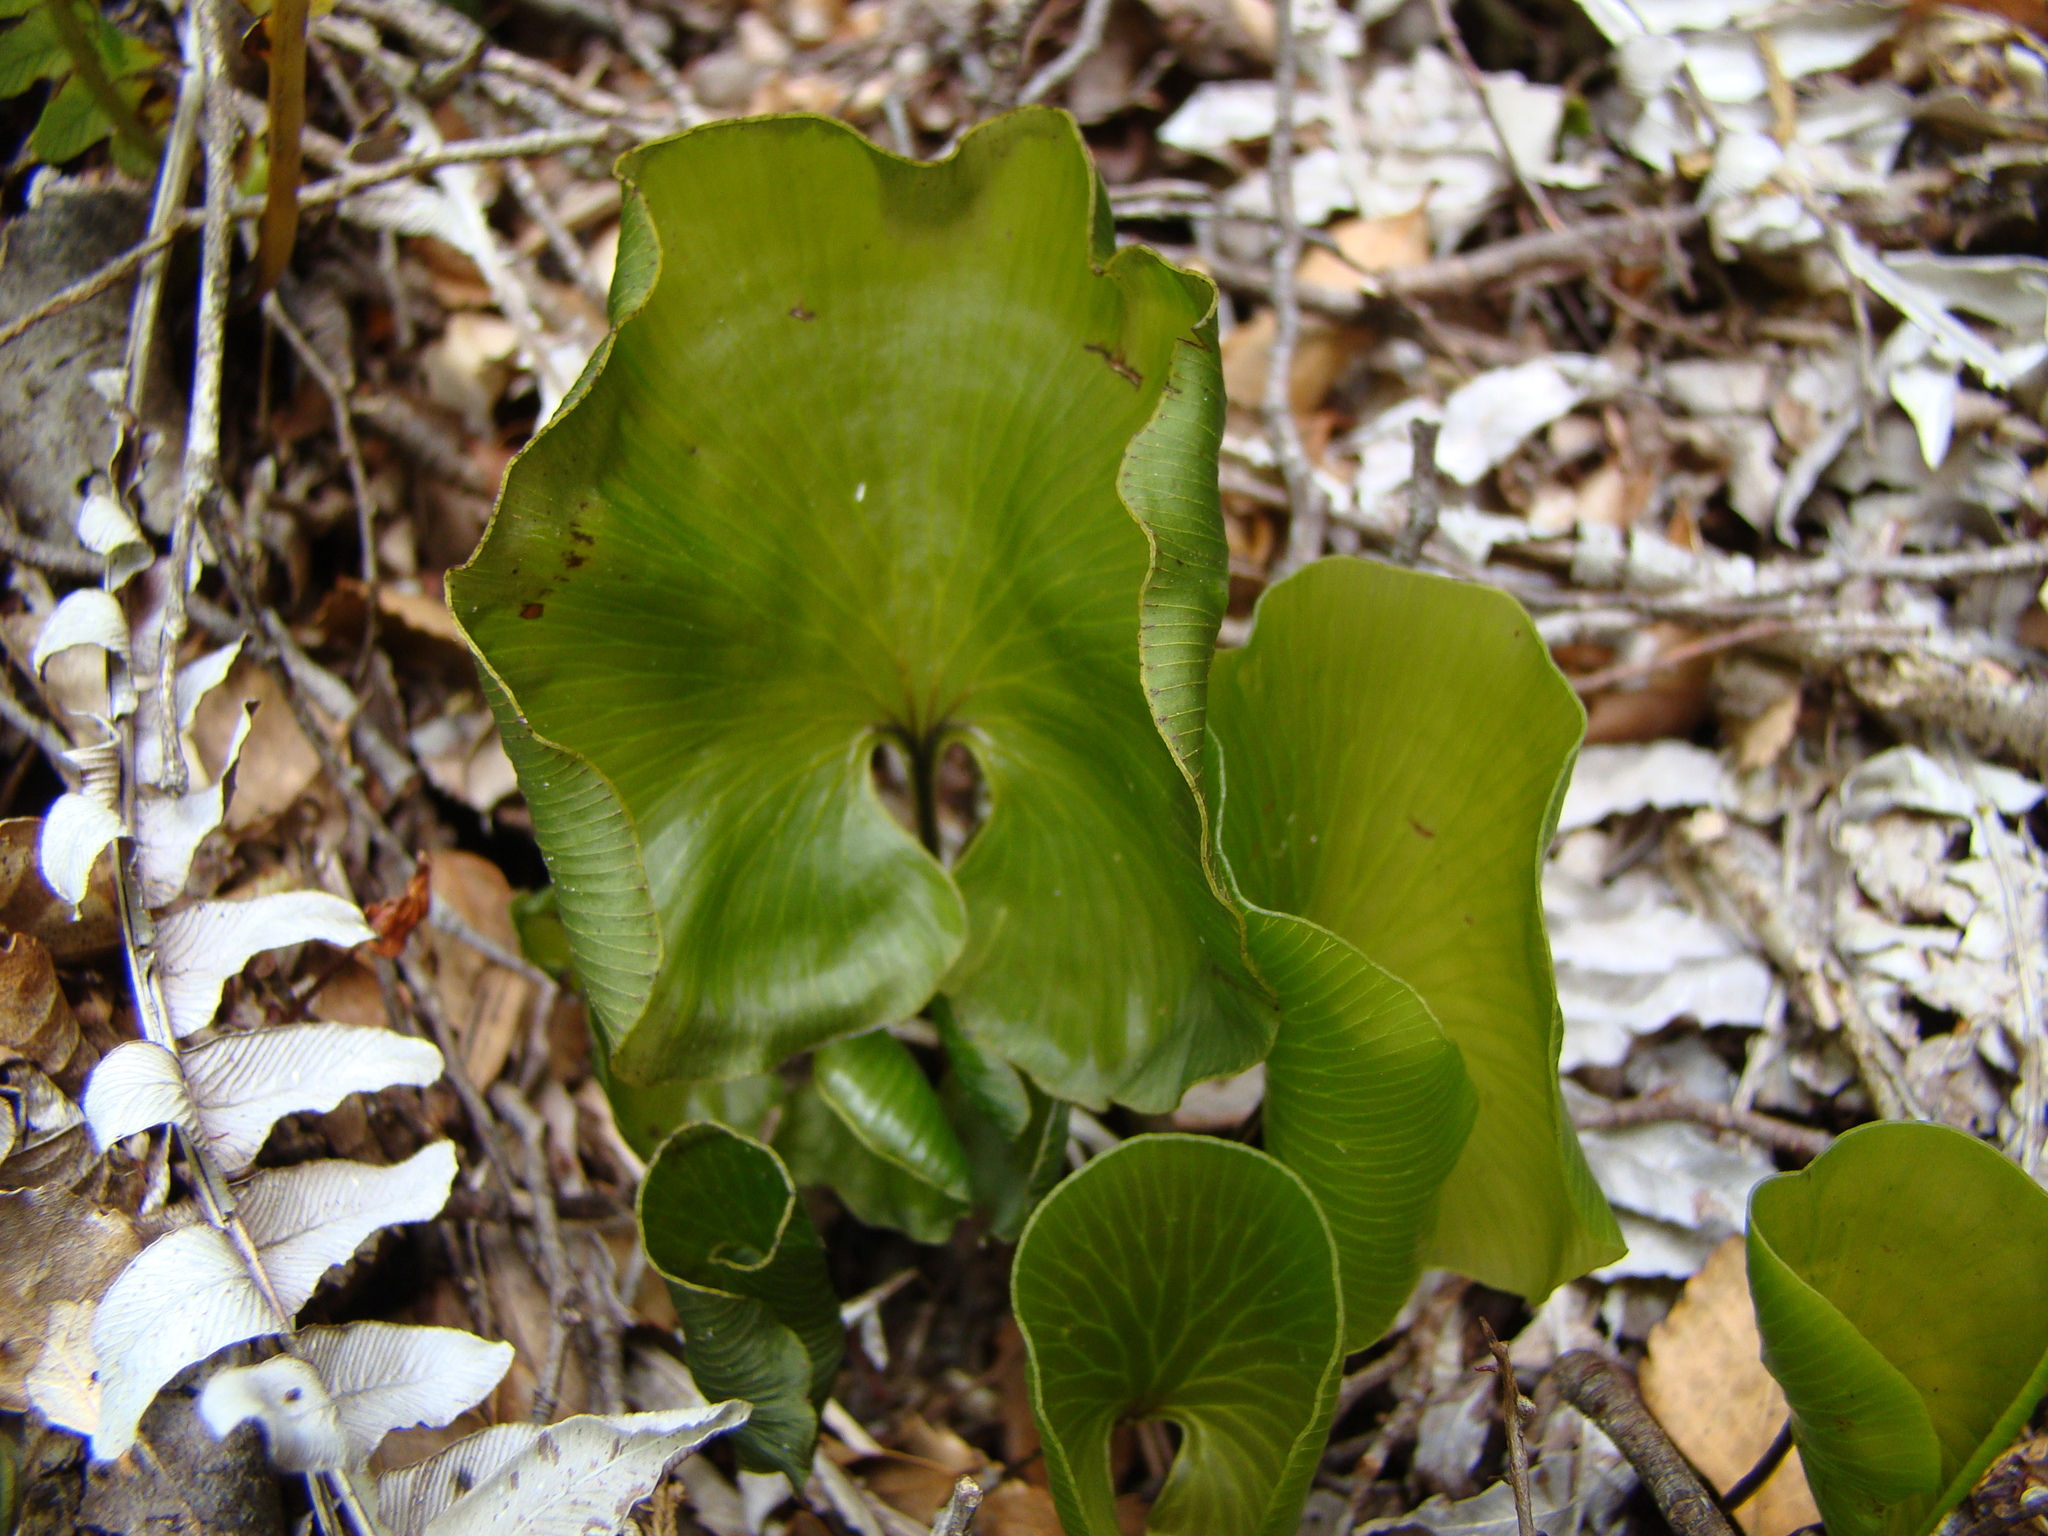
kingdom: Plantae
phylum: Tracheophyta
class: Polypodiopsida
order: Hymenophyllales
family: Hymenophyllaceae
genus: Hymenophyllum
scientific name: Hymenophyllum nephrophyllum
